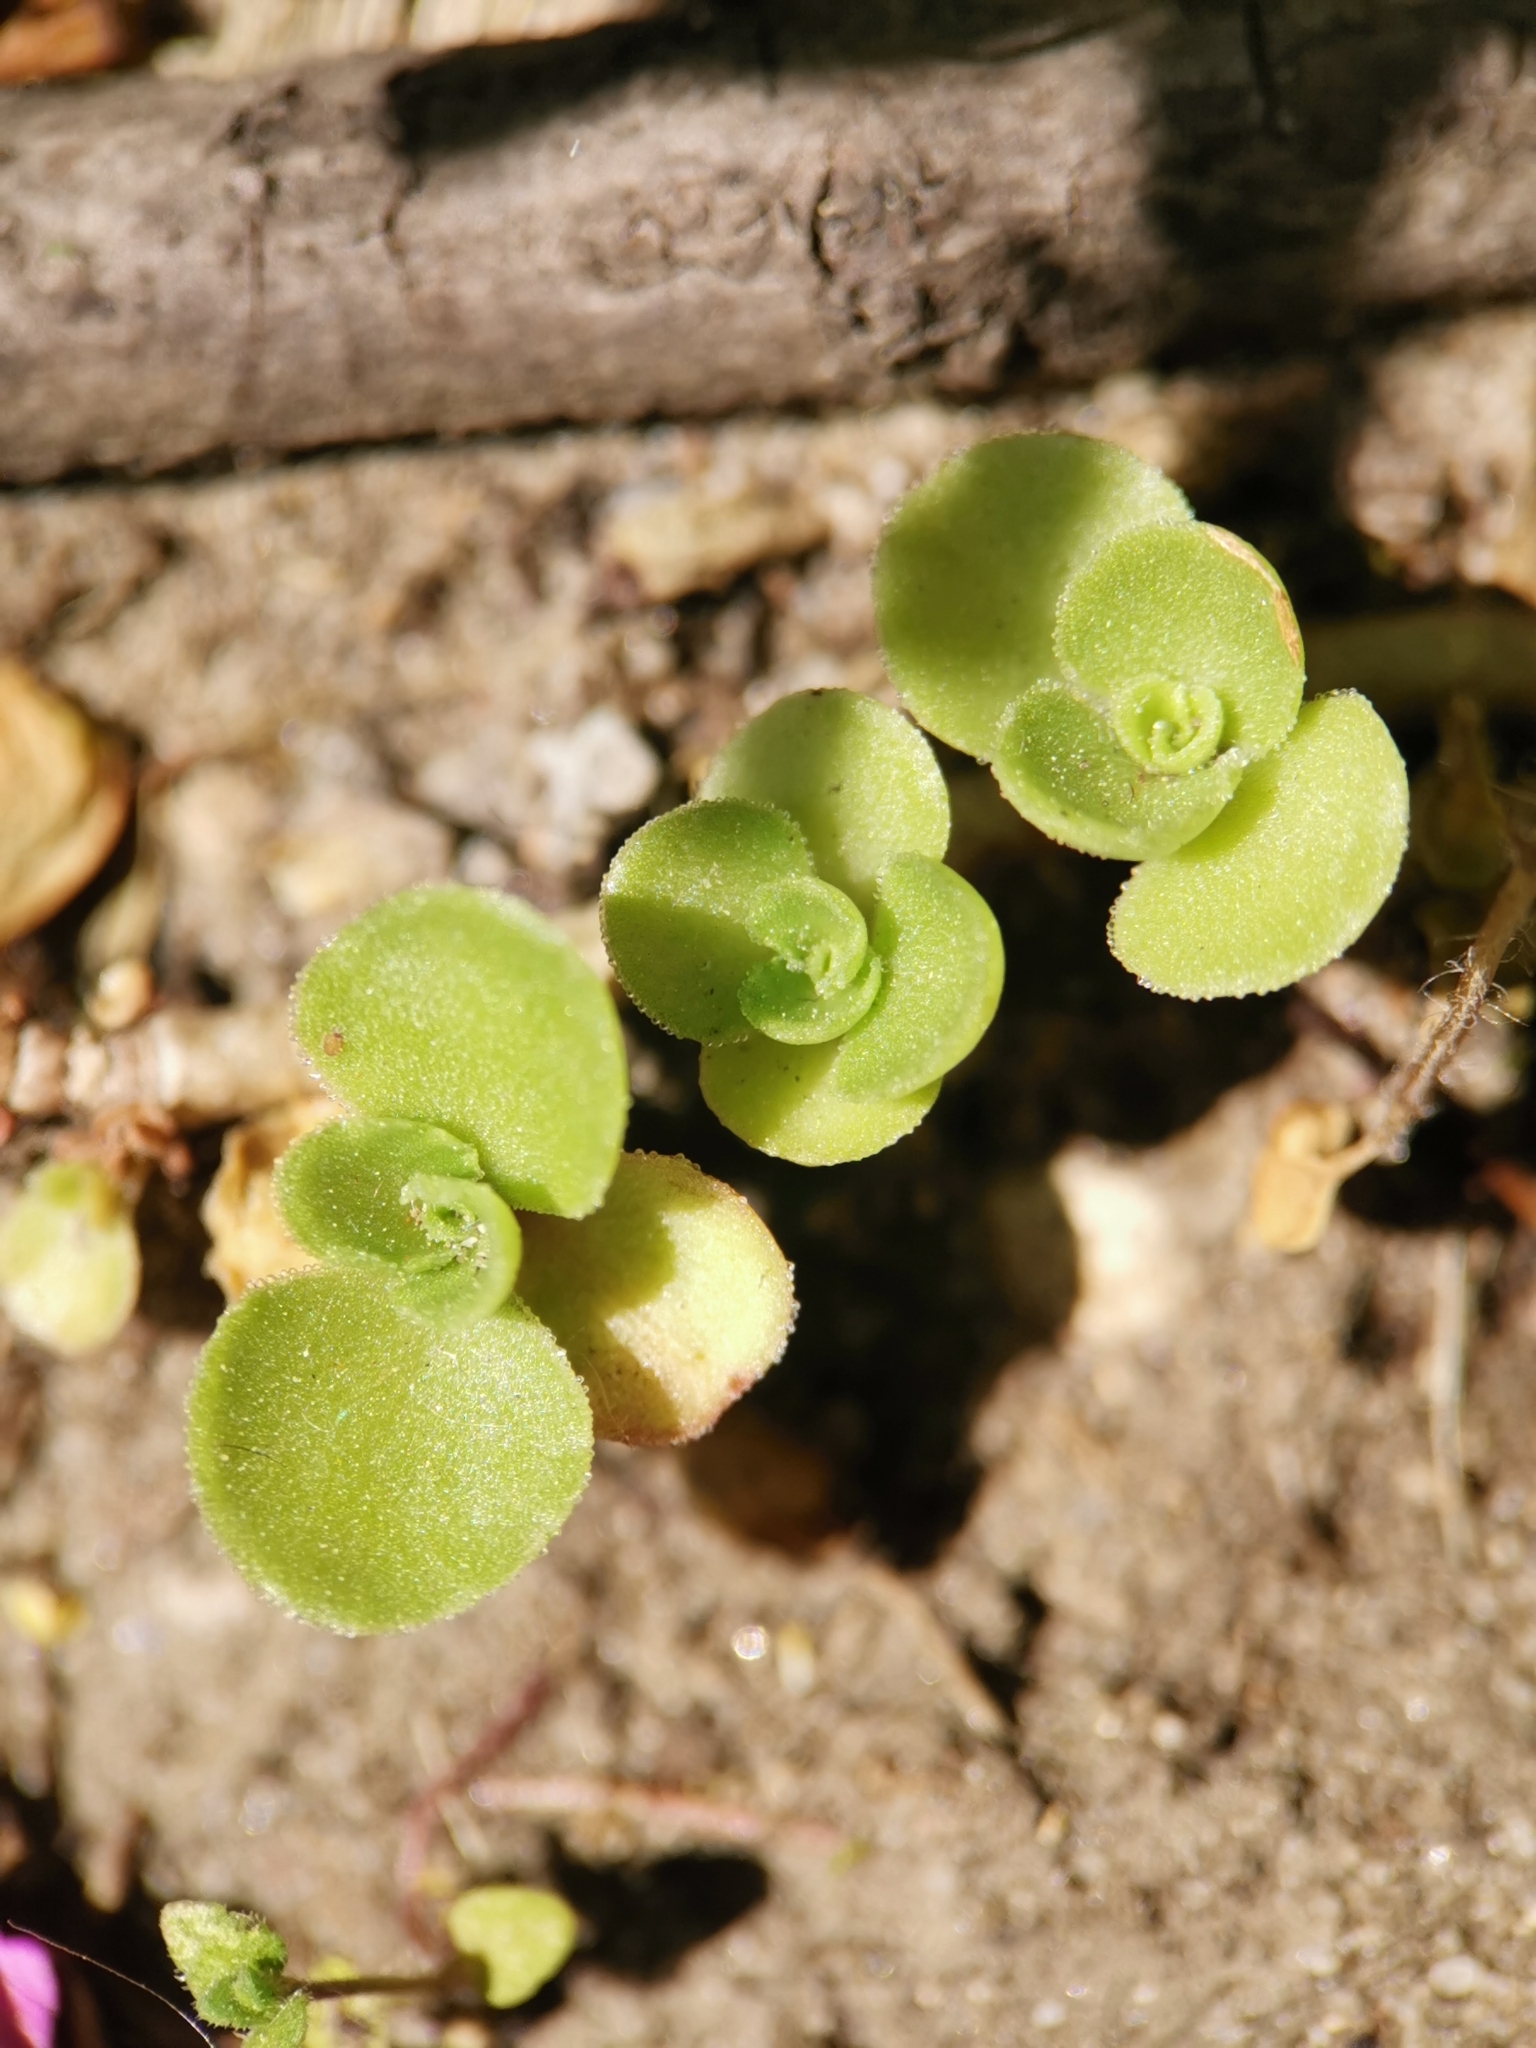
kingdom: Plantae
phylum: Tracheophyta
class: Magnoliopsida
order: Saxifragales
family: Crassulaceae
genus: Phedimus
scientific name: Phedimus spurius
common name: Caucasian stonecrop
